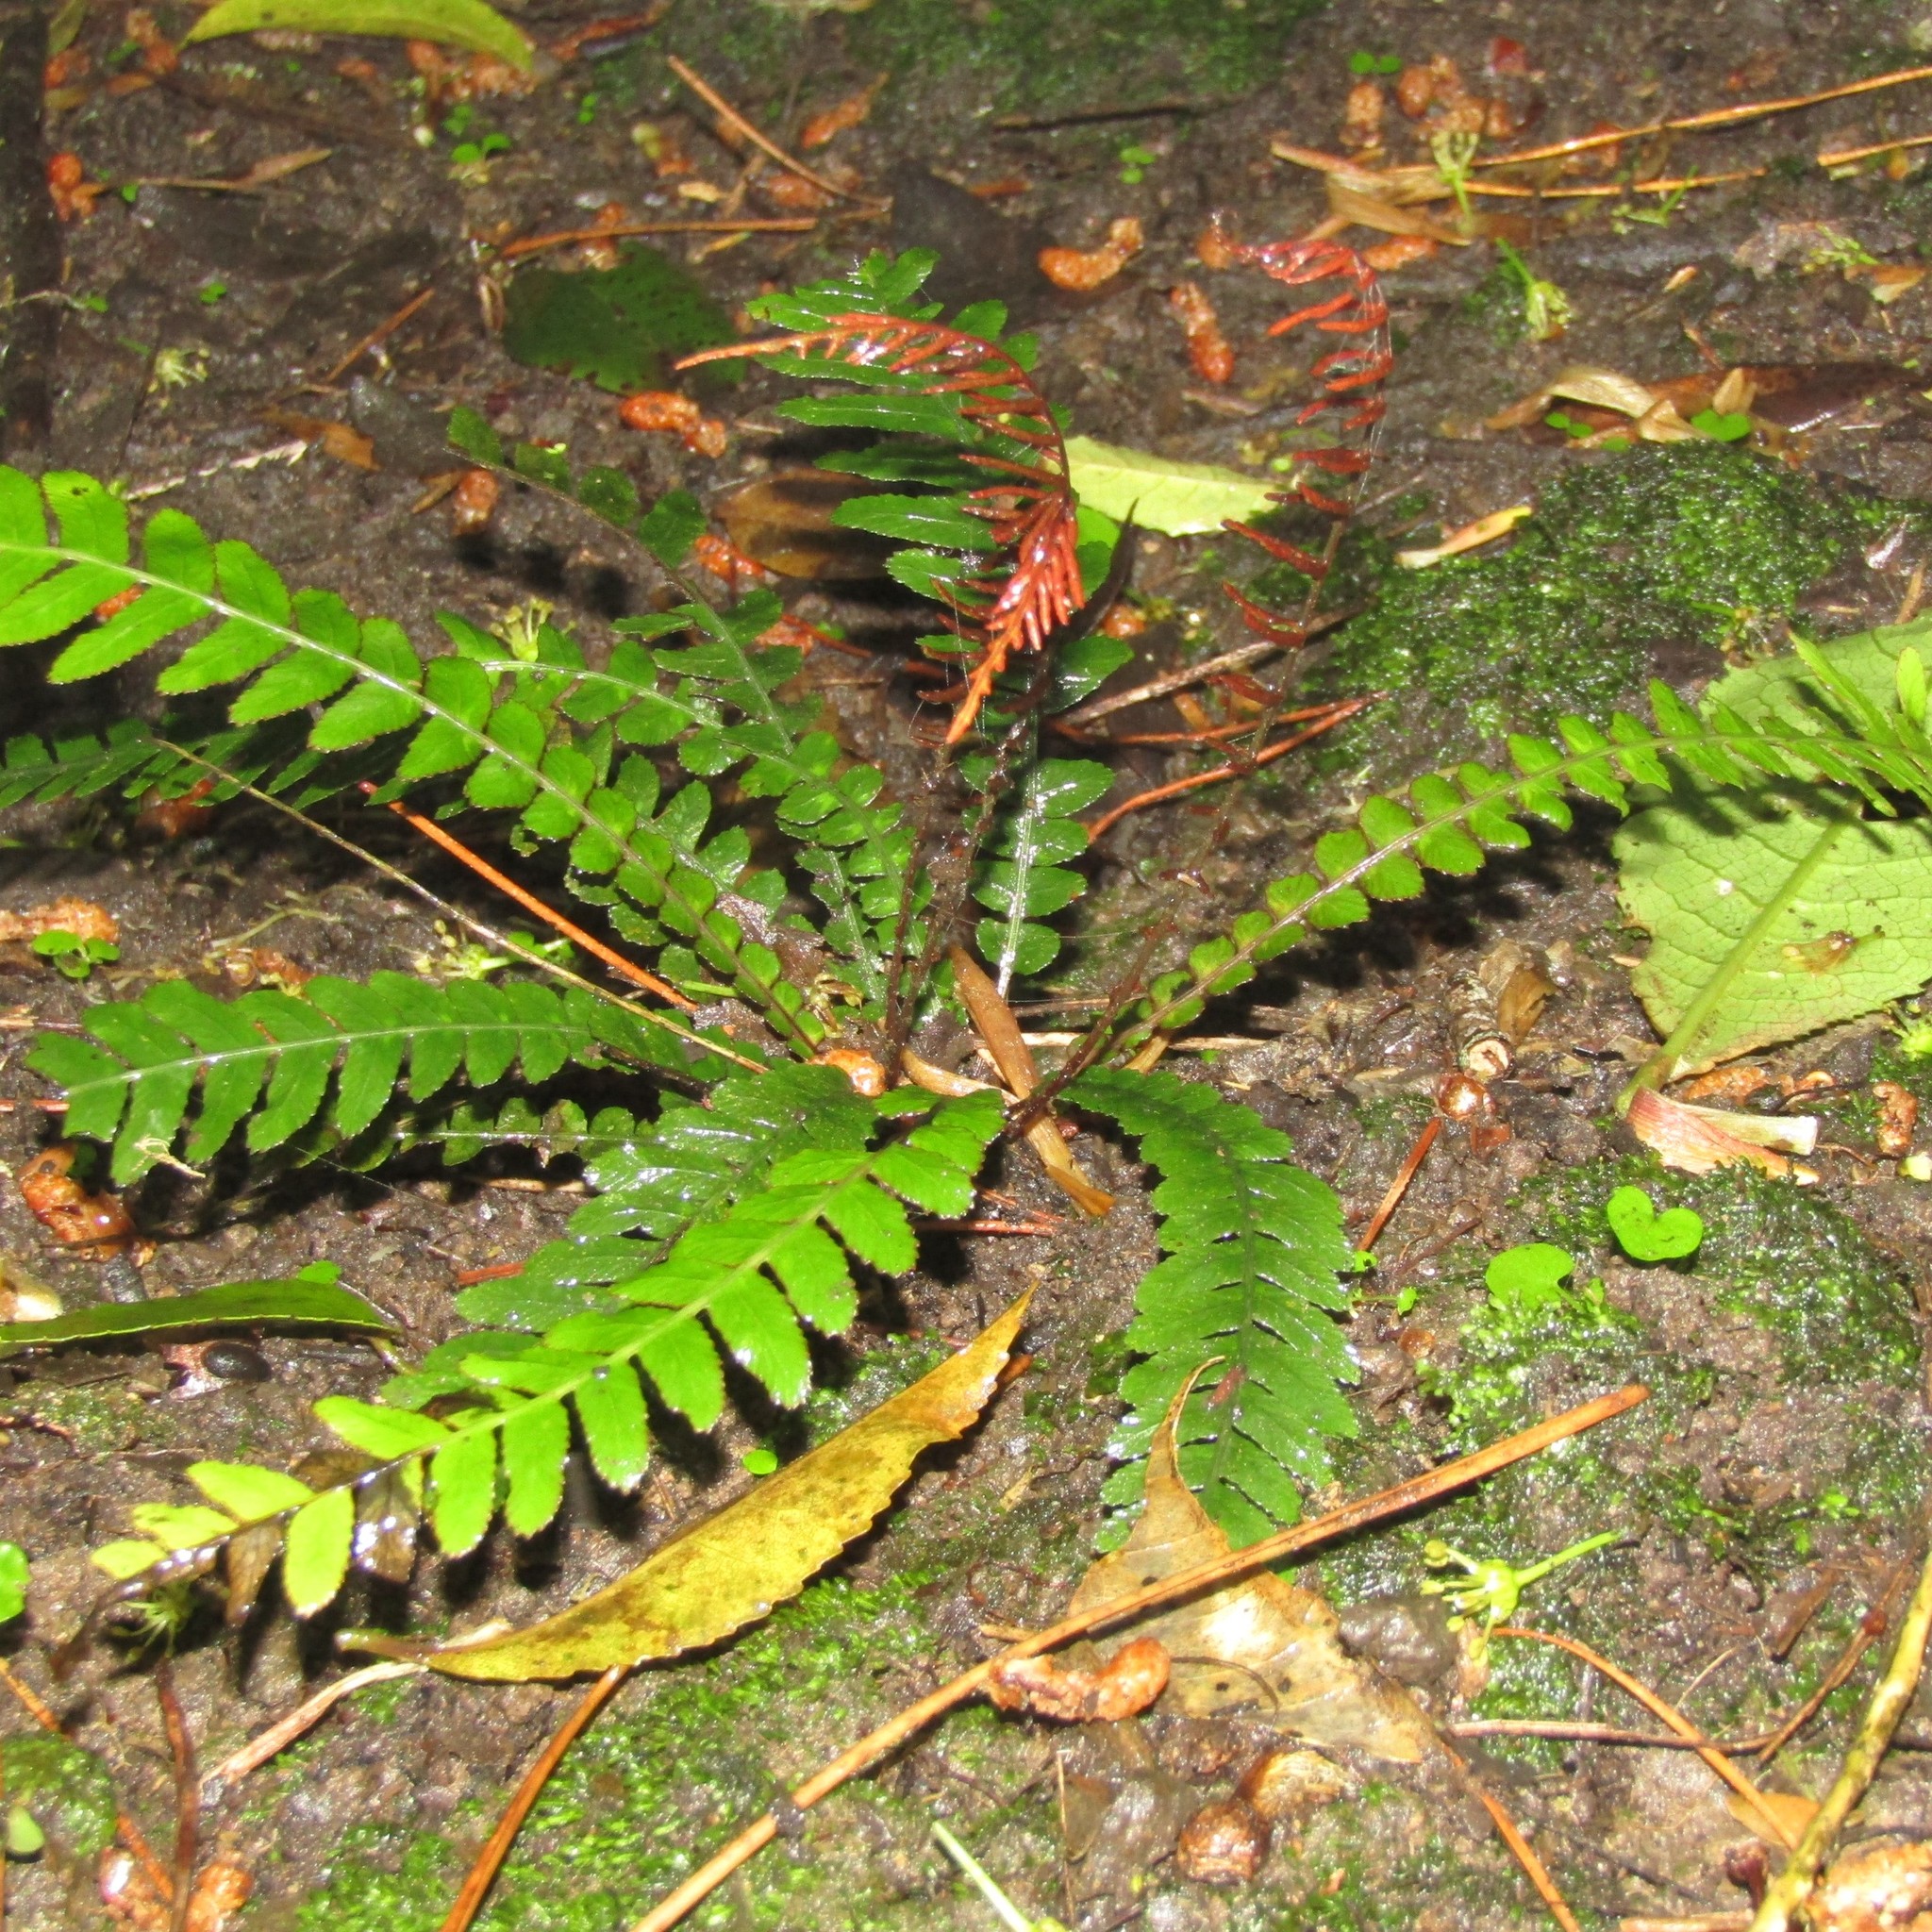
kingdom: Plantae
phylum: Tracheophyta
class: Polypodiopsida
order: Polypodiales
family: Blechnaceae
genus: Austroblechnum
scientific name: Austroblechnum lanceolatum
